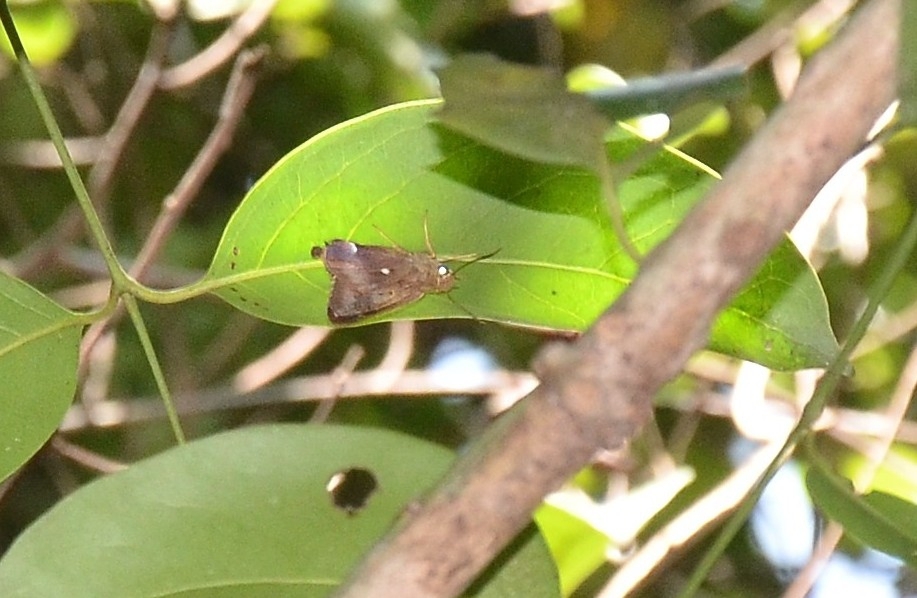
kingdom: Animalia
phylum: Arthropoda
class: Insecta
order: Lepidoptera
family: Hesperiidae
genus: Hasora
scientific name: Hasora badra
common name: Common awl
